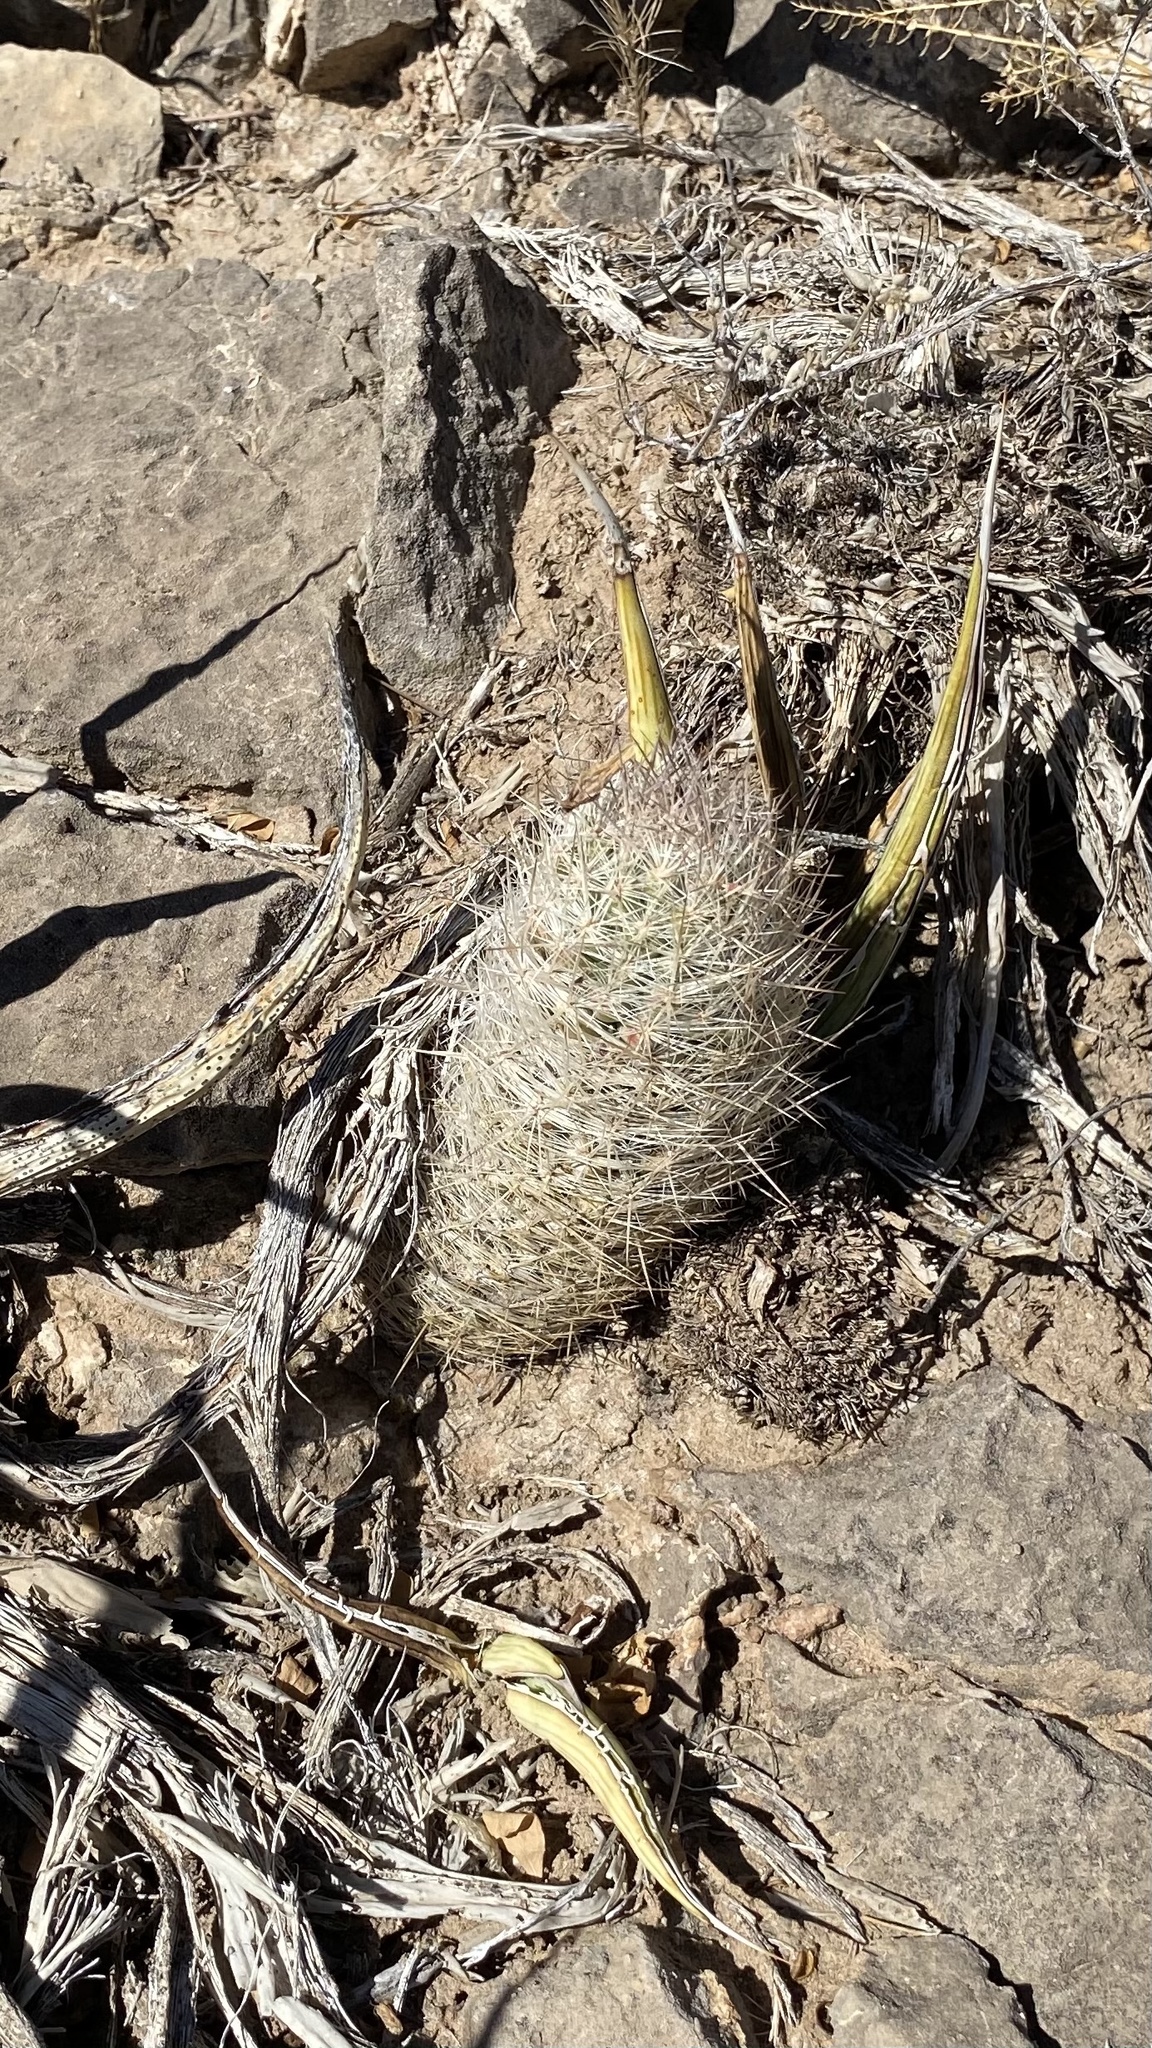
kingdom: Plantae
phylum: Tracheophyta
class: Magnoliopsida
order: Caryophyllales
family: Cactaceae
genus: Pelecyphora
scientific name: Pelecyphora tuberculosa
